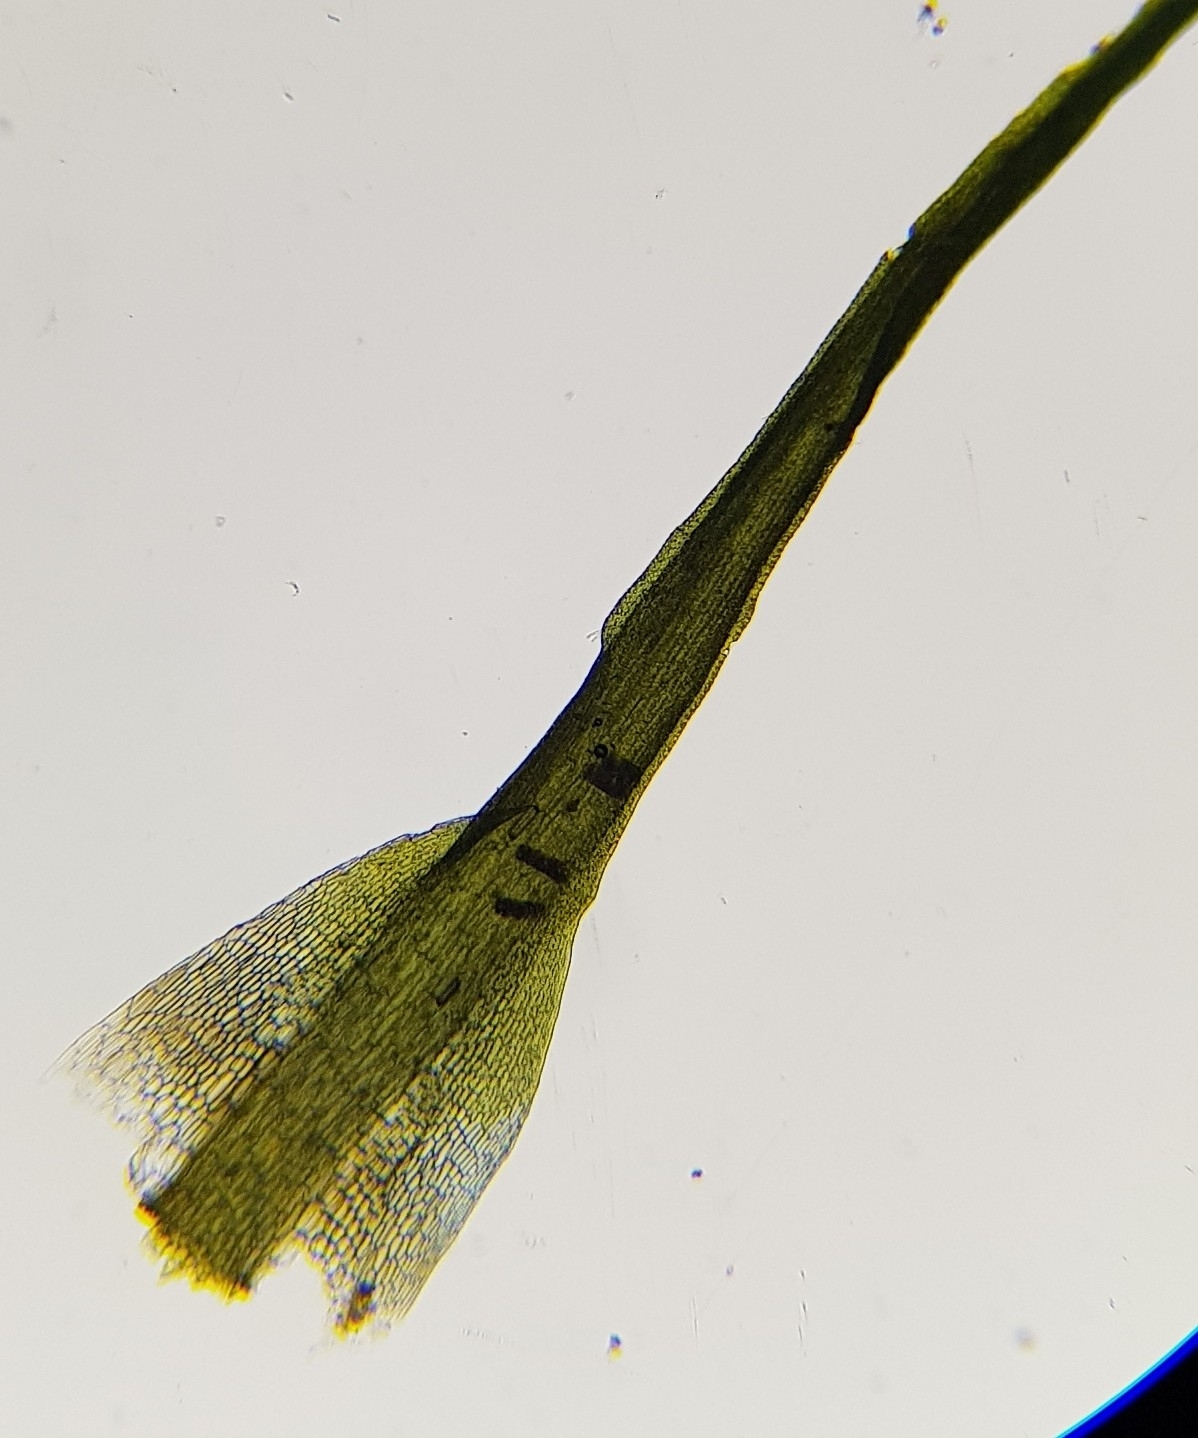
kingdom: Plantae
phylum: Bryophyta
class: Bryopsida
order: Dicranales
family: Leucobryaceae
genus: Campylopus
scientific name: Campylopus pyriformis
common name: Dwarf swan-neck moss
